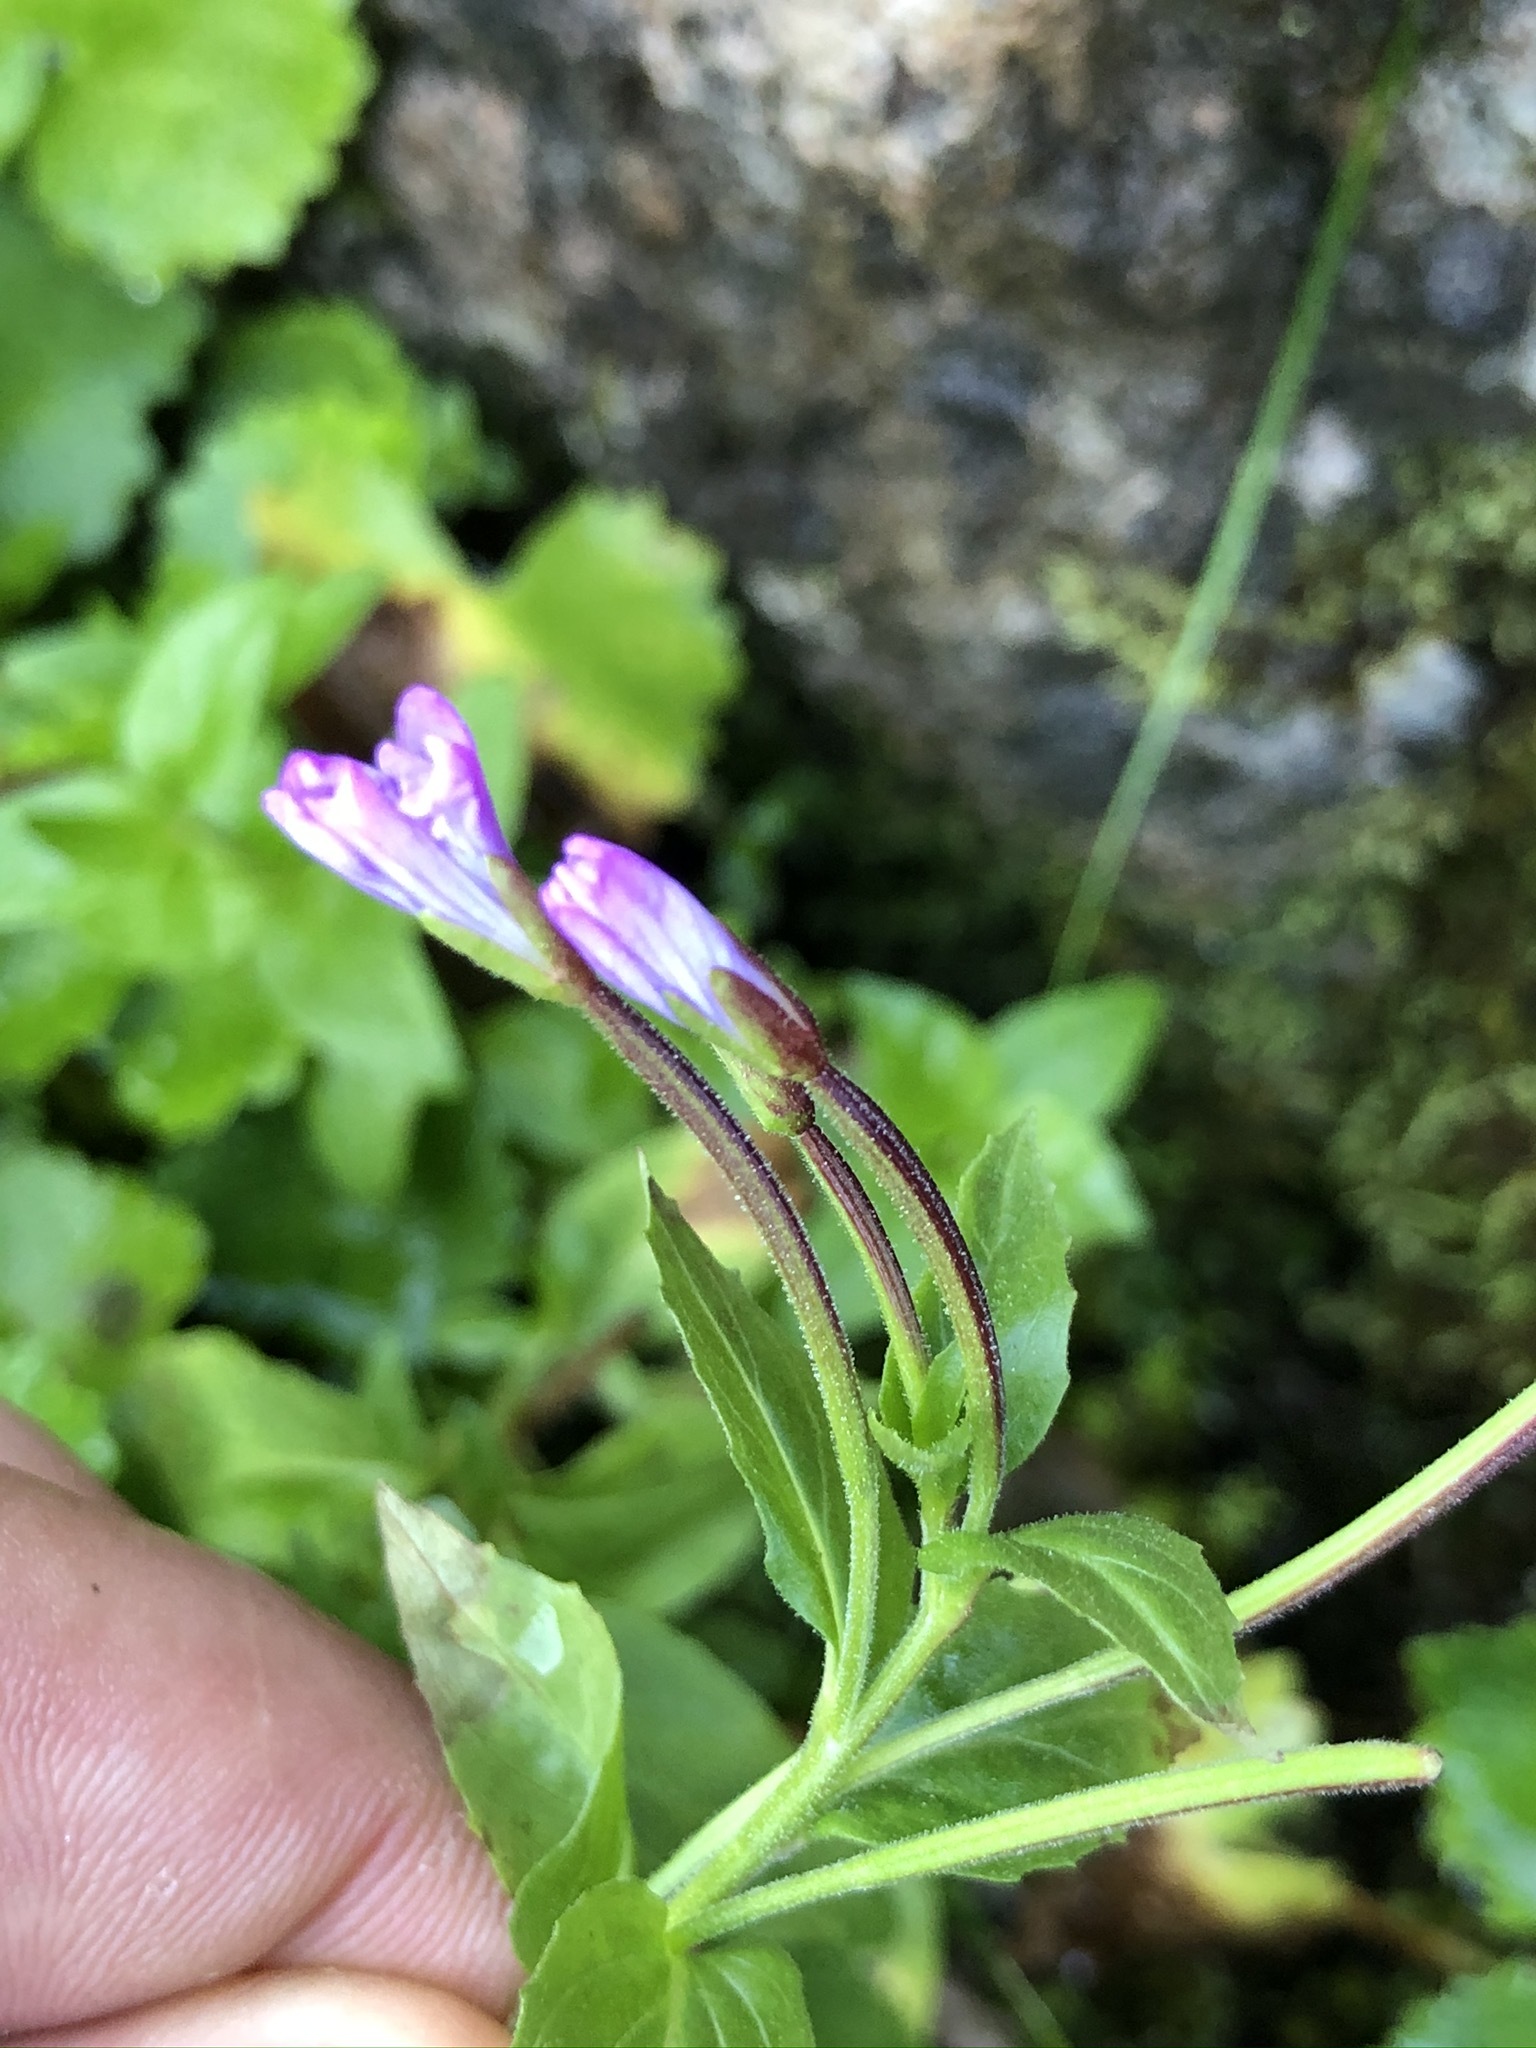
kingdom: Plantae
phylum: Tracheophyta
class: Magnoliopsida
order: Myrtales
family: Onagraceae
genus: Epilobium
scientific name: Epilobium montanum
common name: Broad-leaved willowherb
